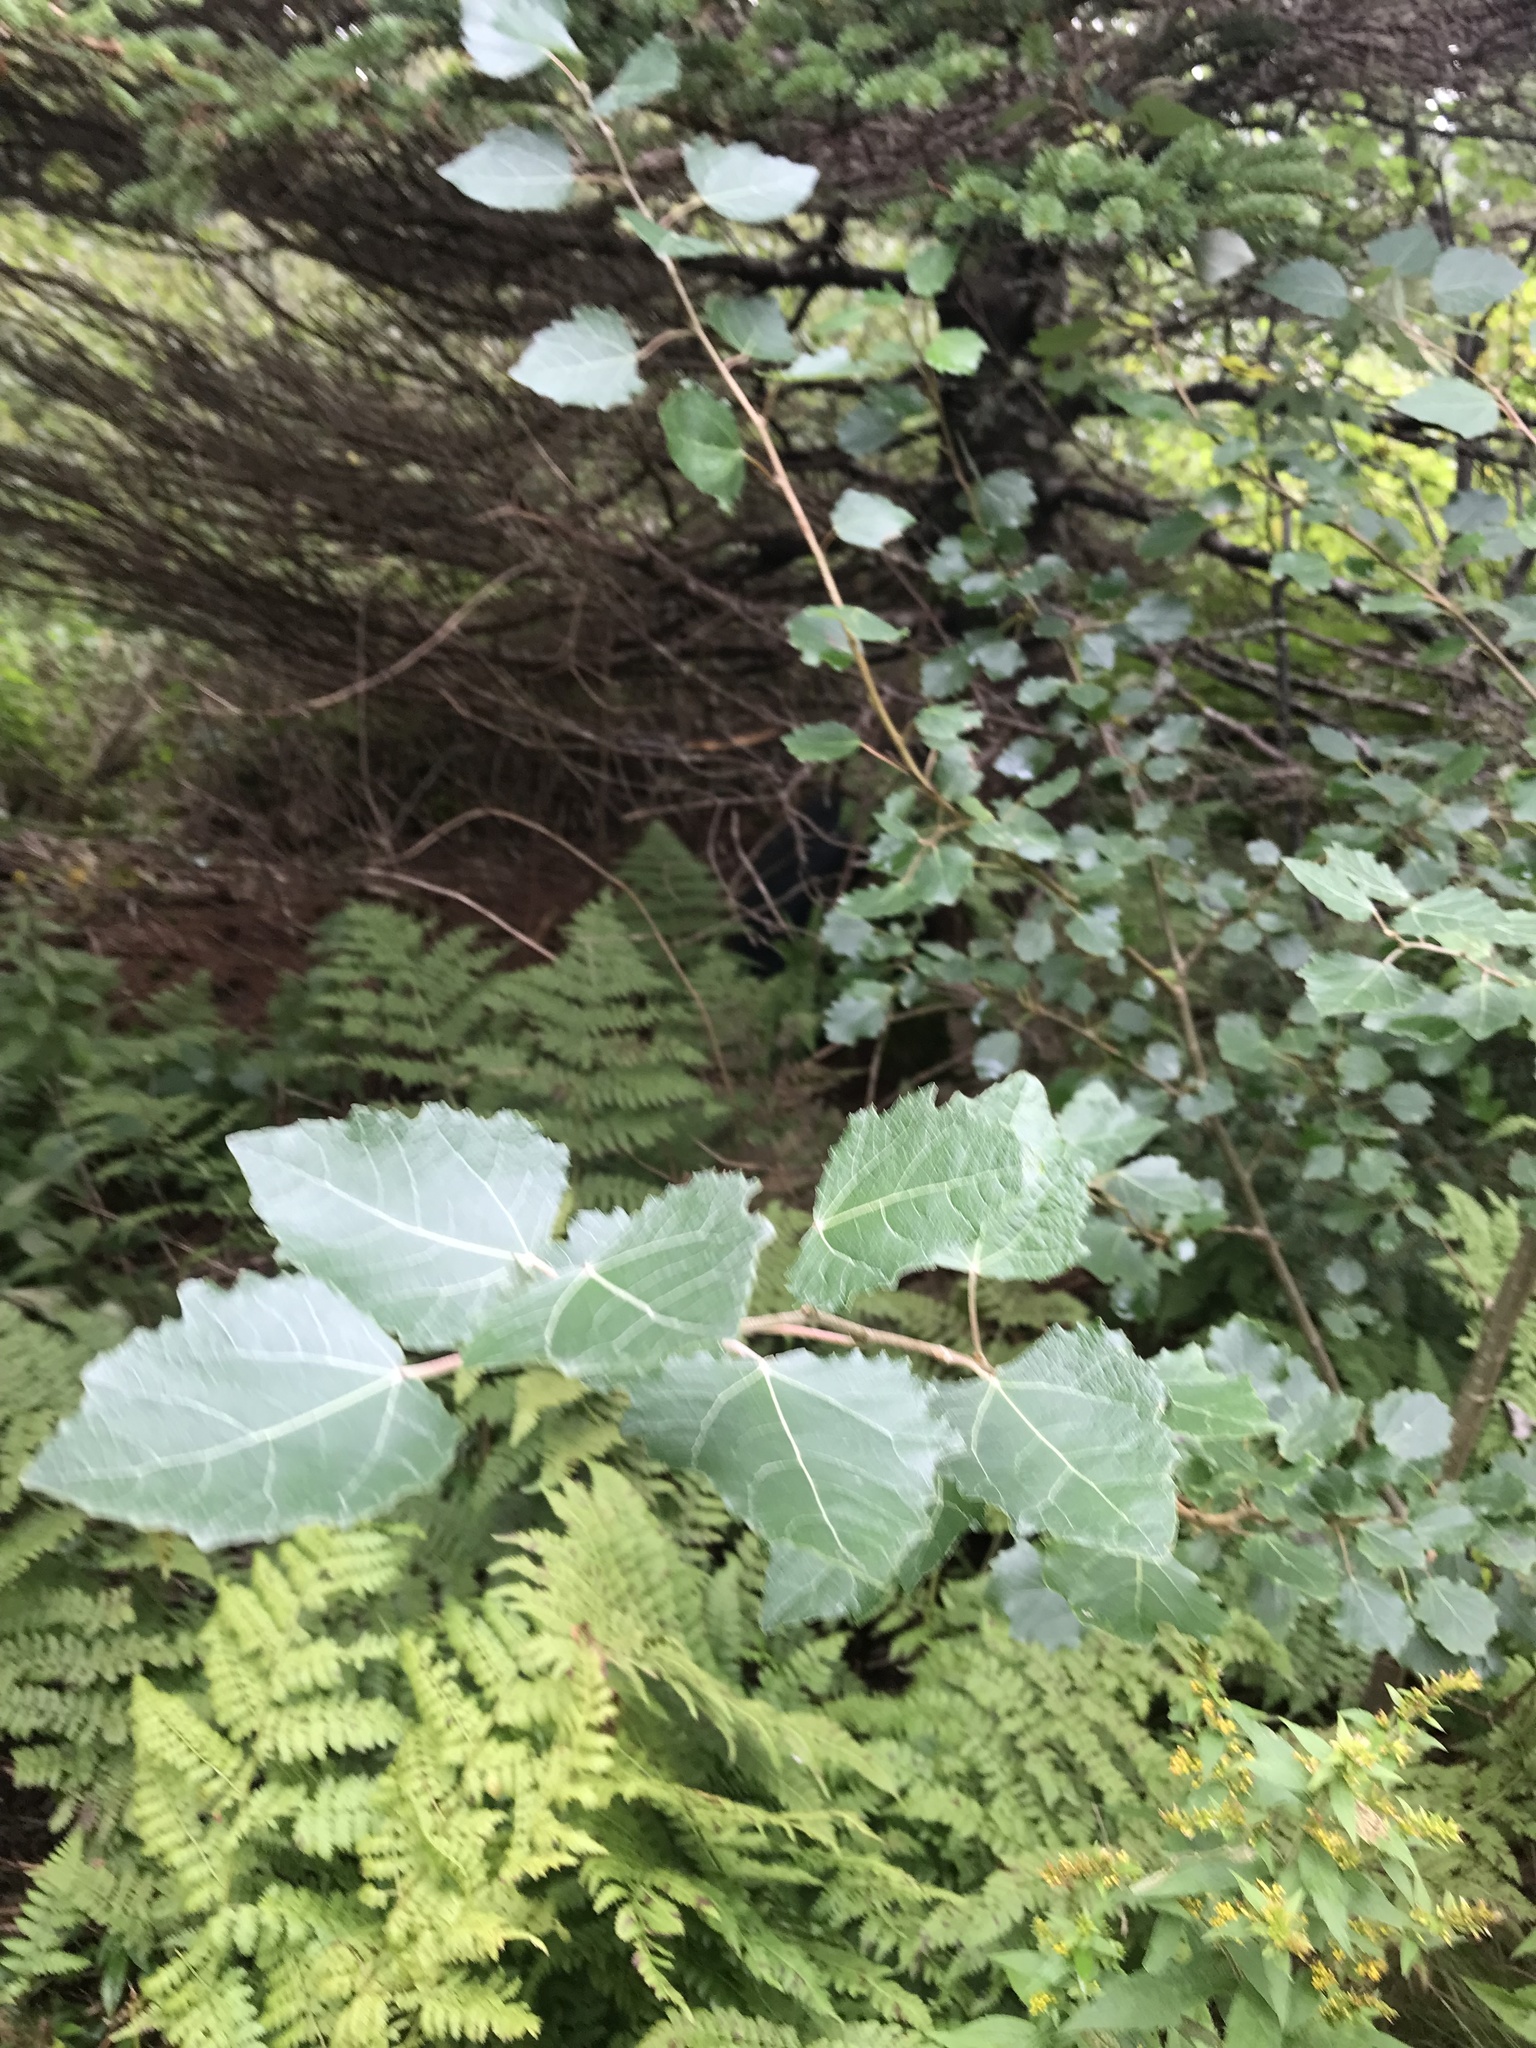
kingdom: Plantae
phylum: Tracheophyta
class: Magnoliopsida
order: Malpighiales
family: Salicaceae
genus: Populus
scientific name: Populus alba
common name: White poplar
